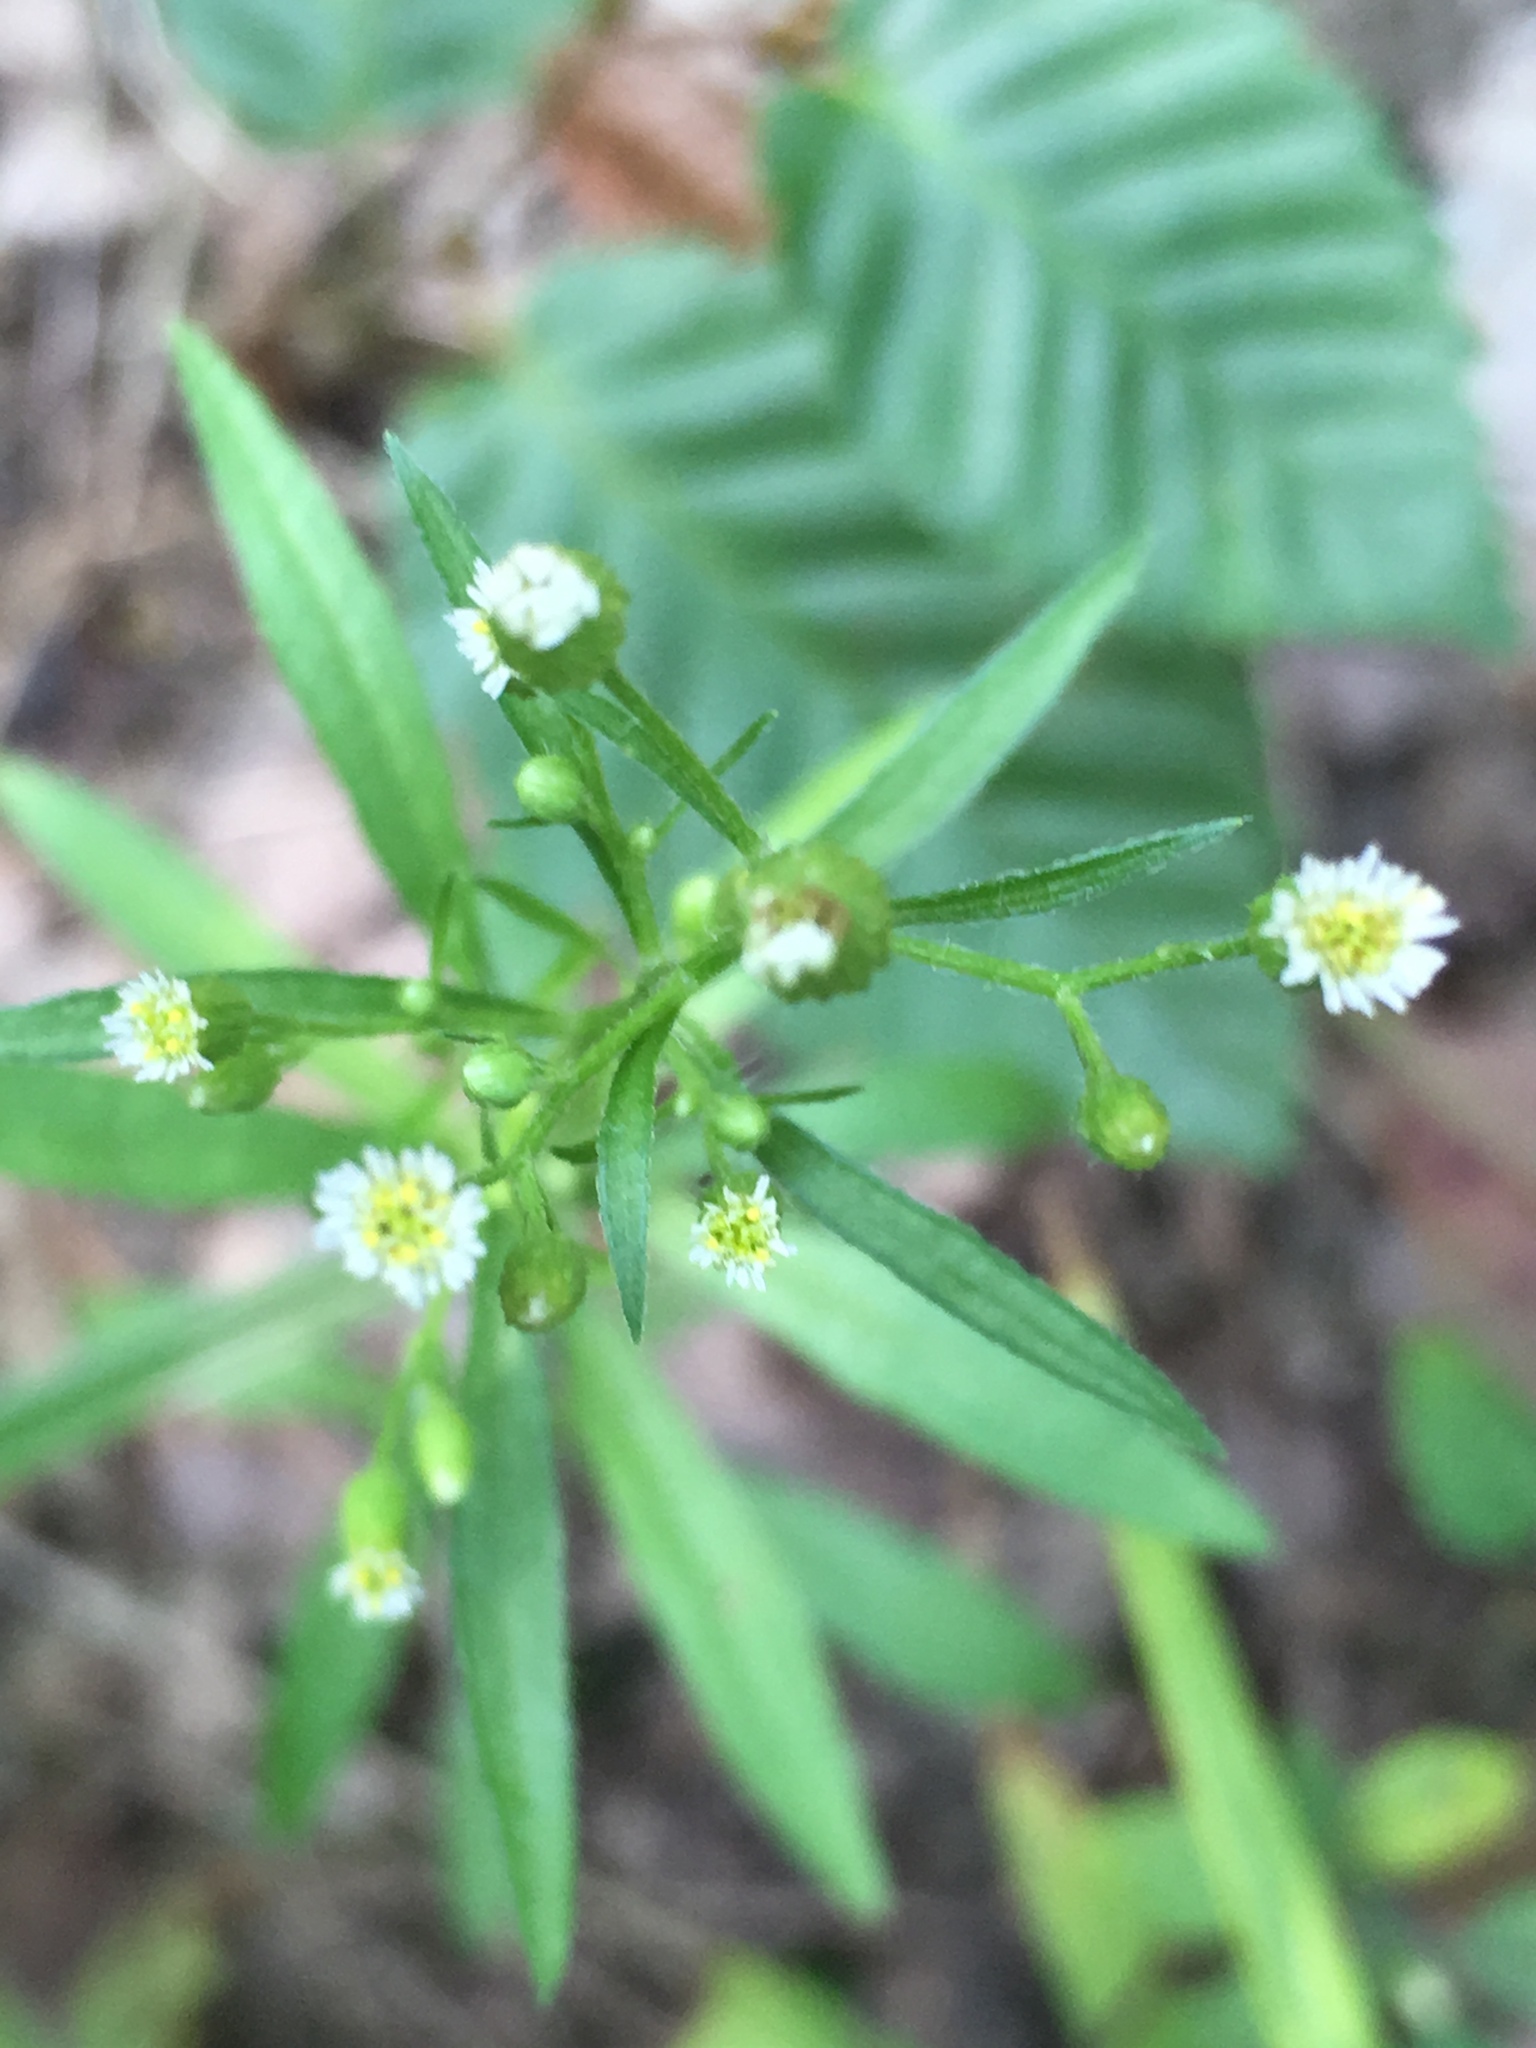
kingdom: Plantae
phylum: Tracheophyta
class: Magnoliopsida
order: Asterales
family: Asteraceae
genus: Erigeron
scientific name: Erigeron canadensis
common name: Canadian fleabane
